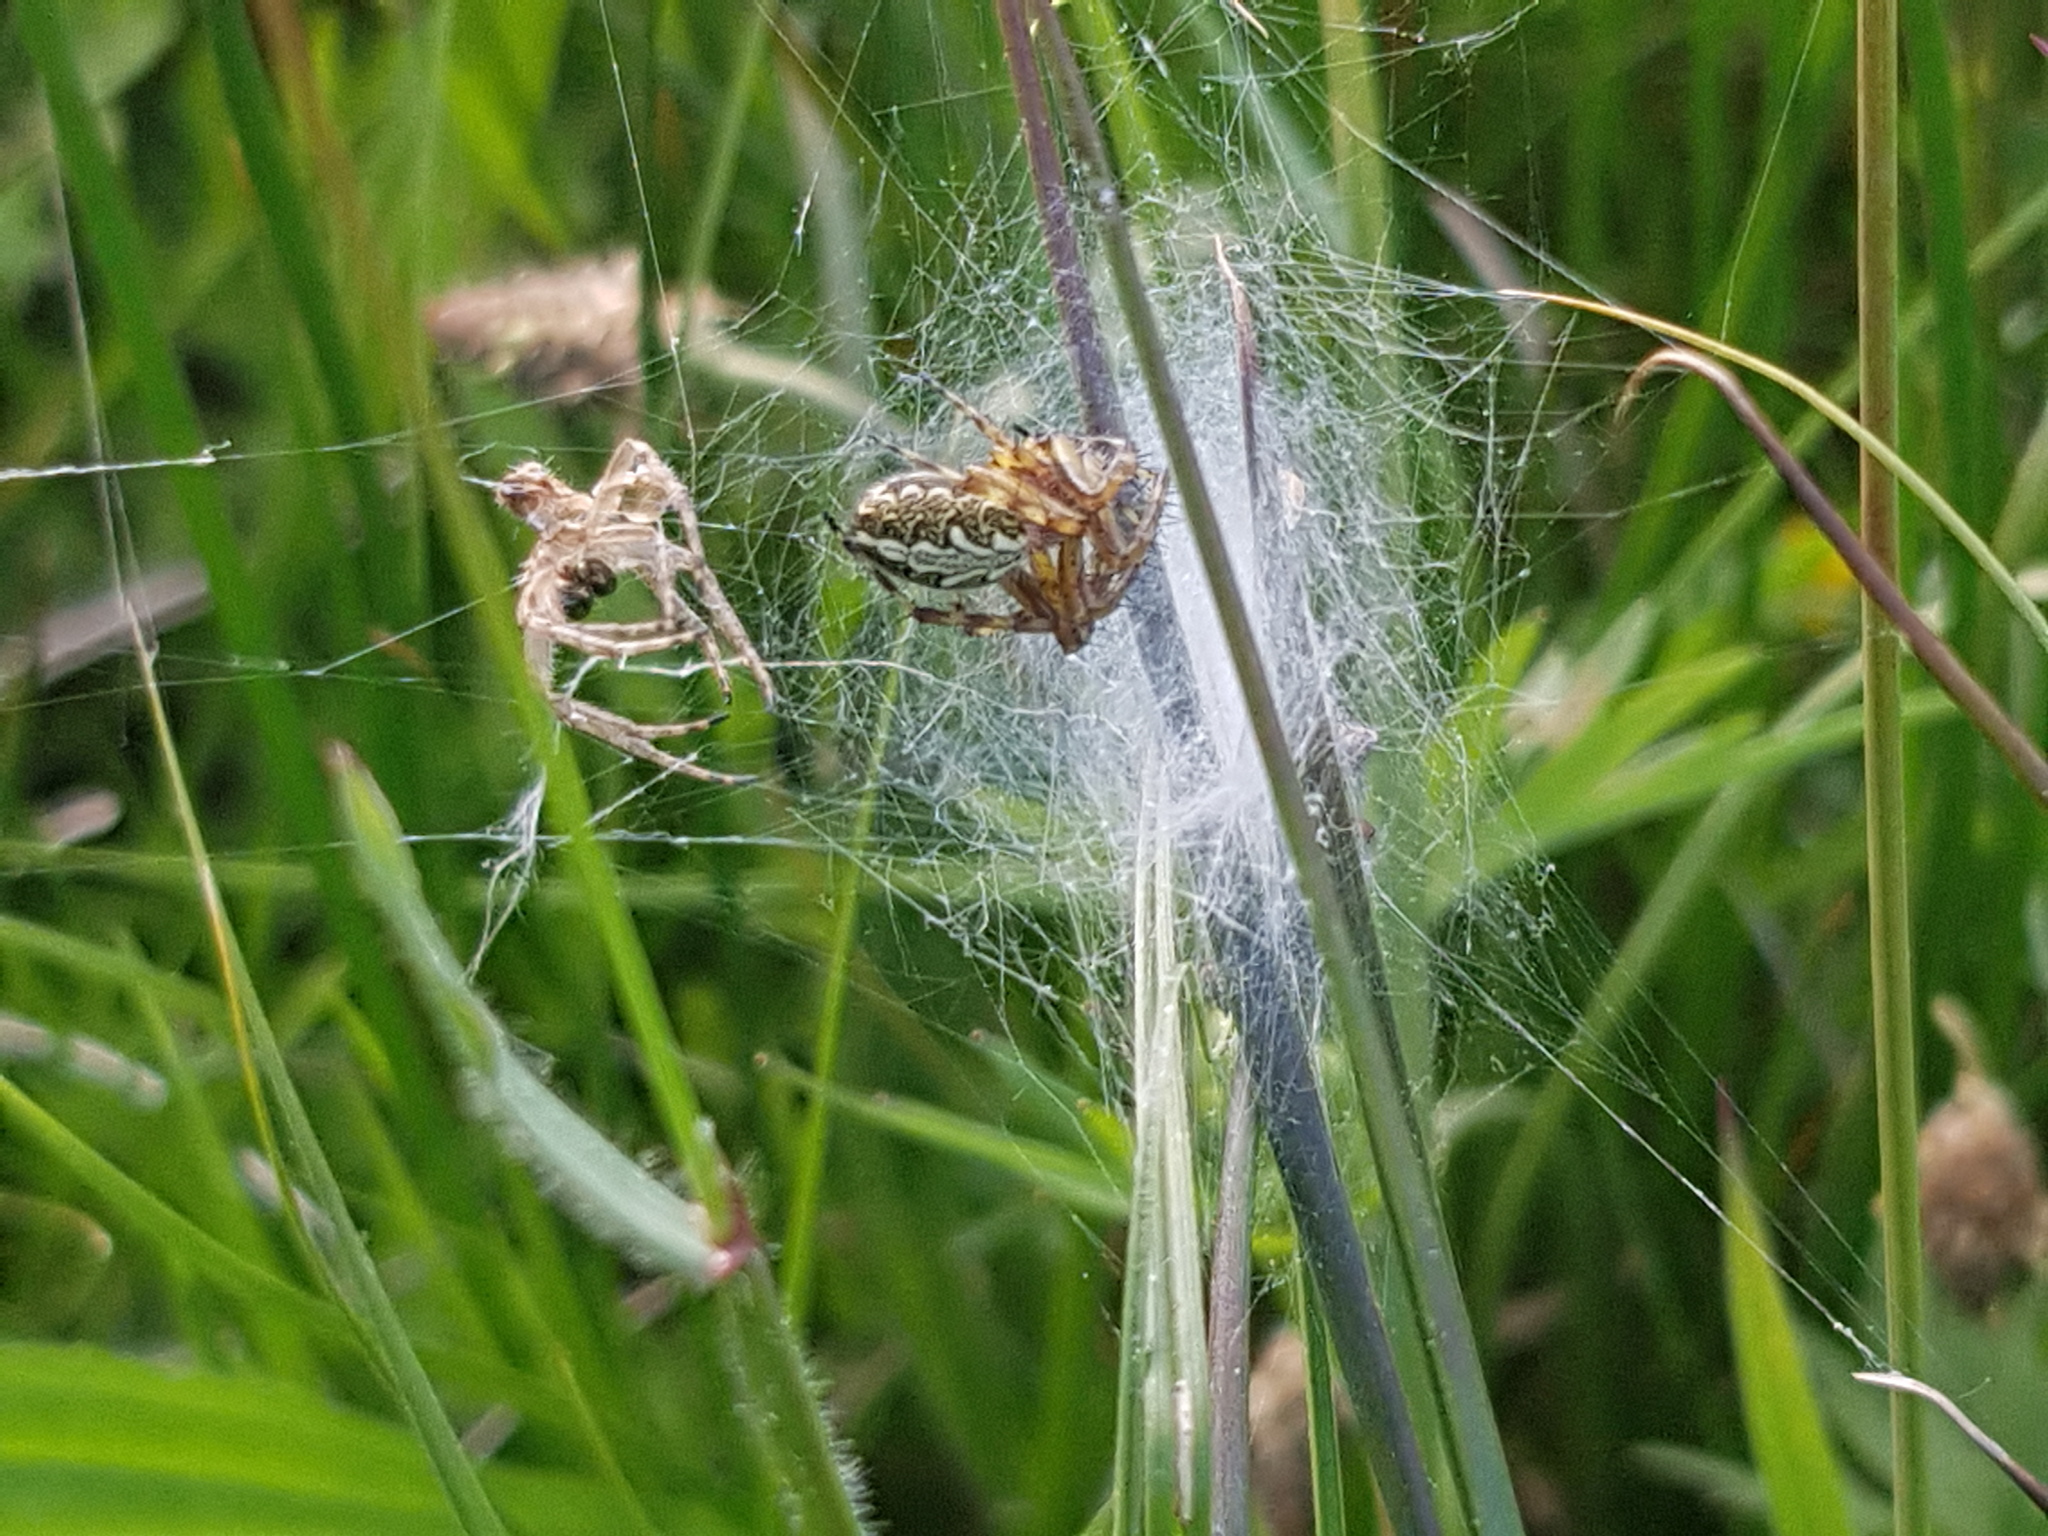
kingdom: Animalia
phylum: Arthropoda
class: Arachnida
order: Araneae
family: Araneidae
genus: Aculepeira
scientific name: Aculepeira ceropegia
